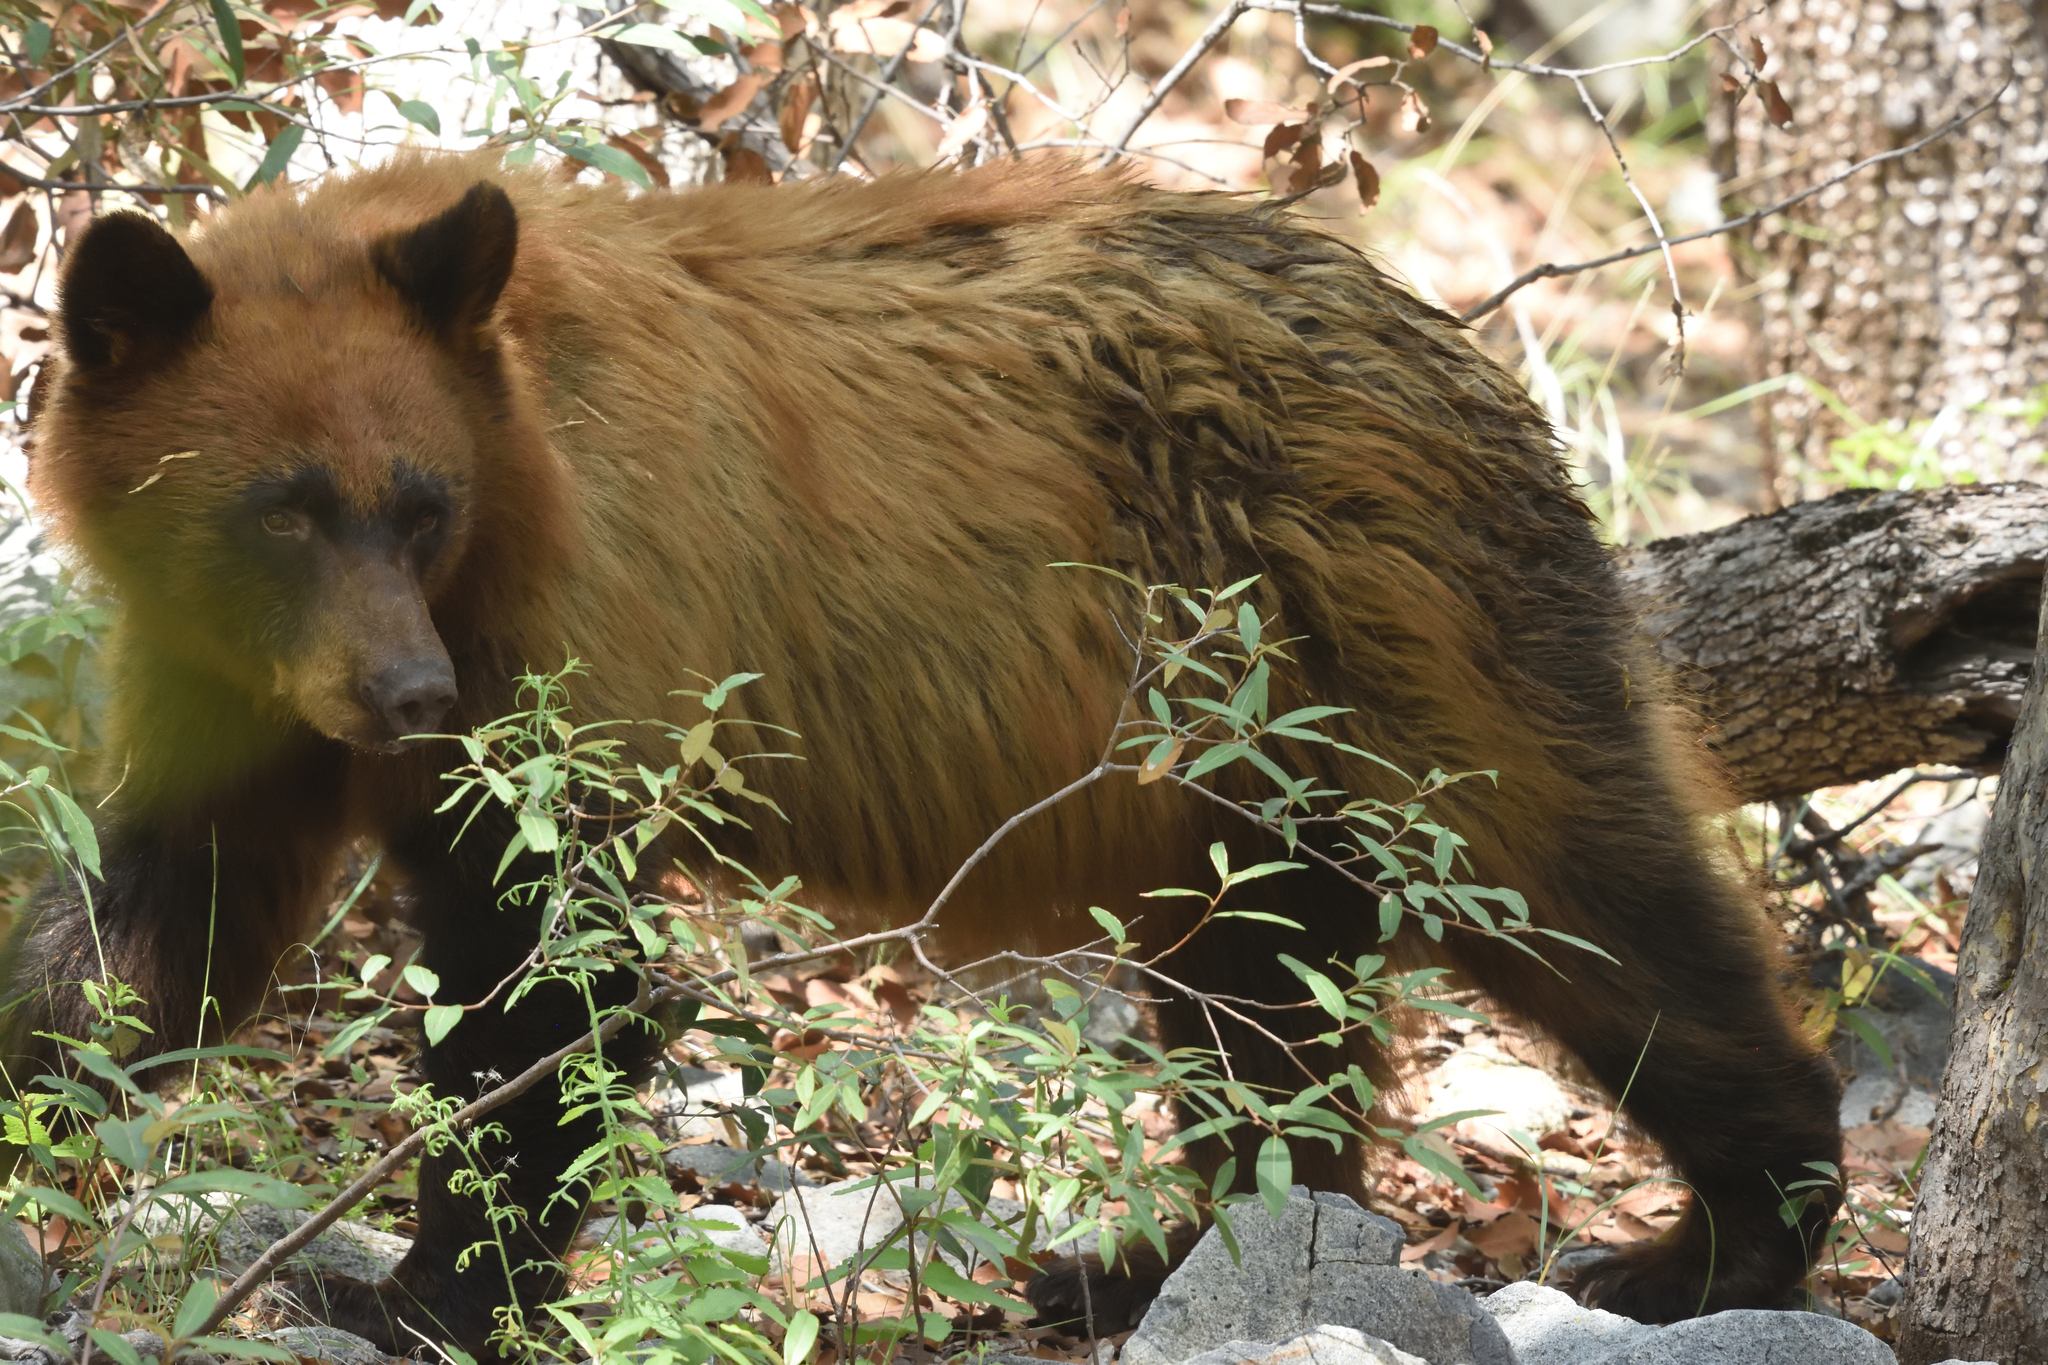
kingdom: Animalia
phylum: Chordata
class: Mammalia
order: Carnivora
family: Ursidae
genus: Ursus
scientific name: Ursus americanus
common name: American black bear
